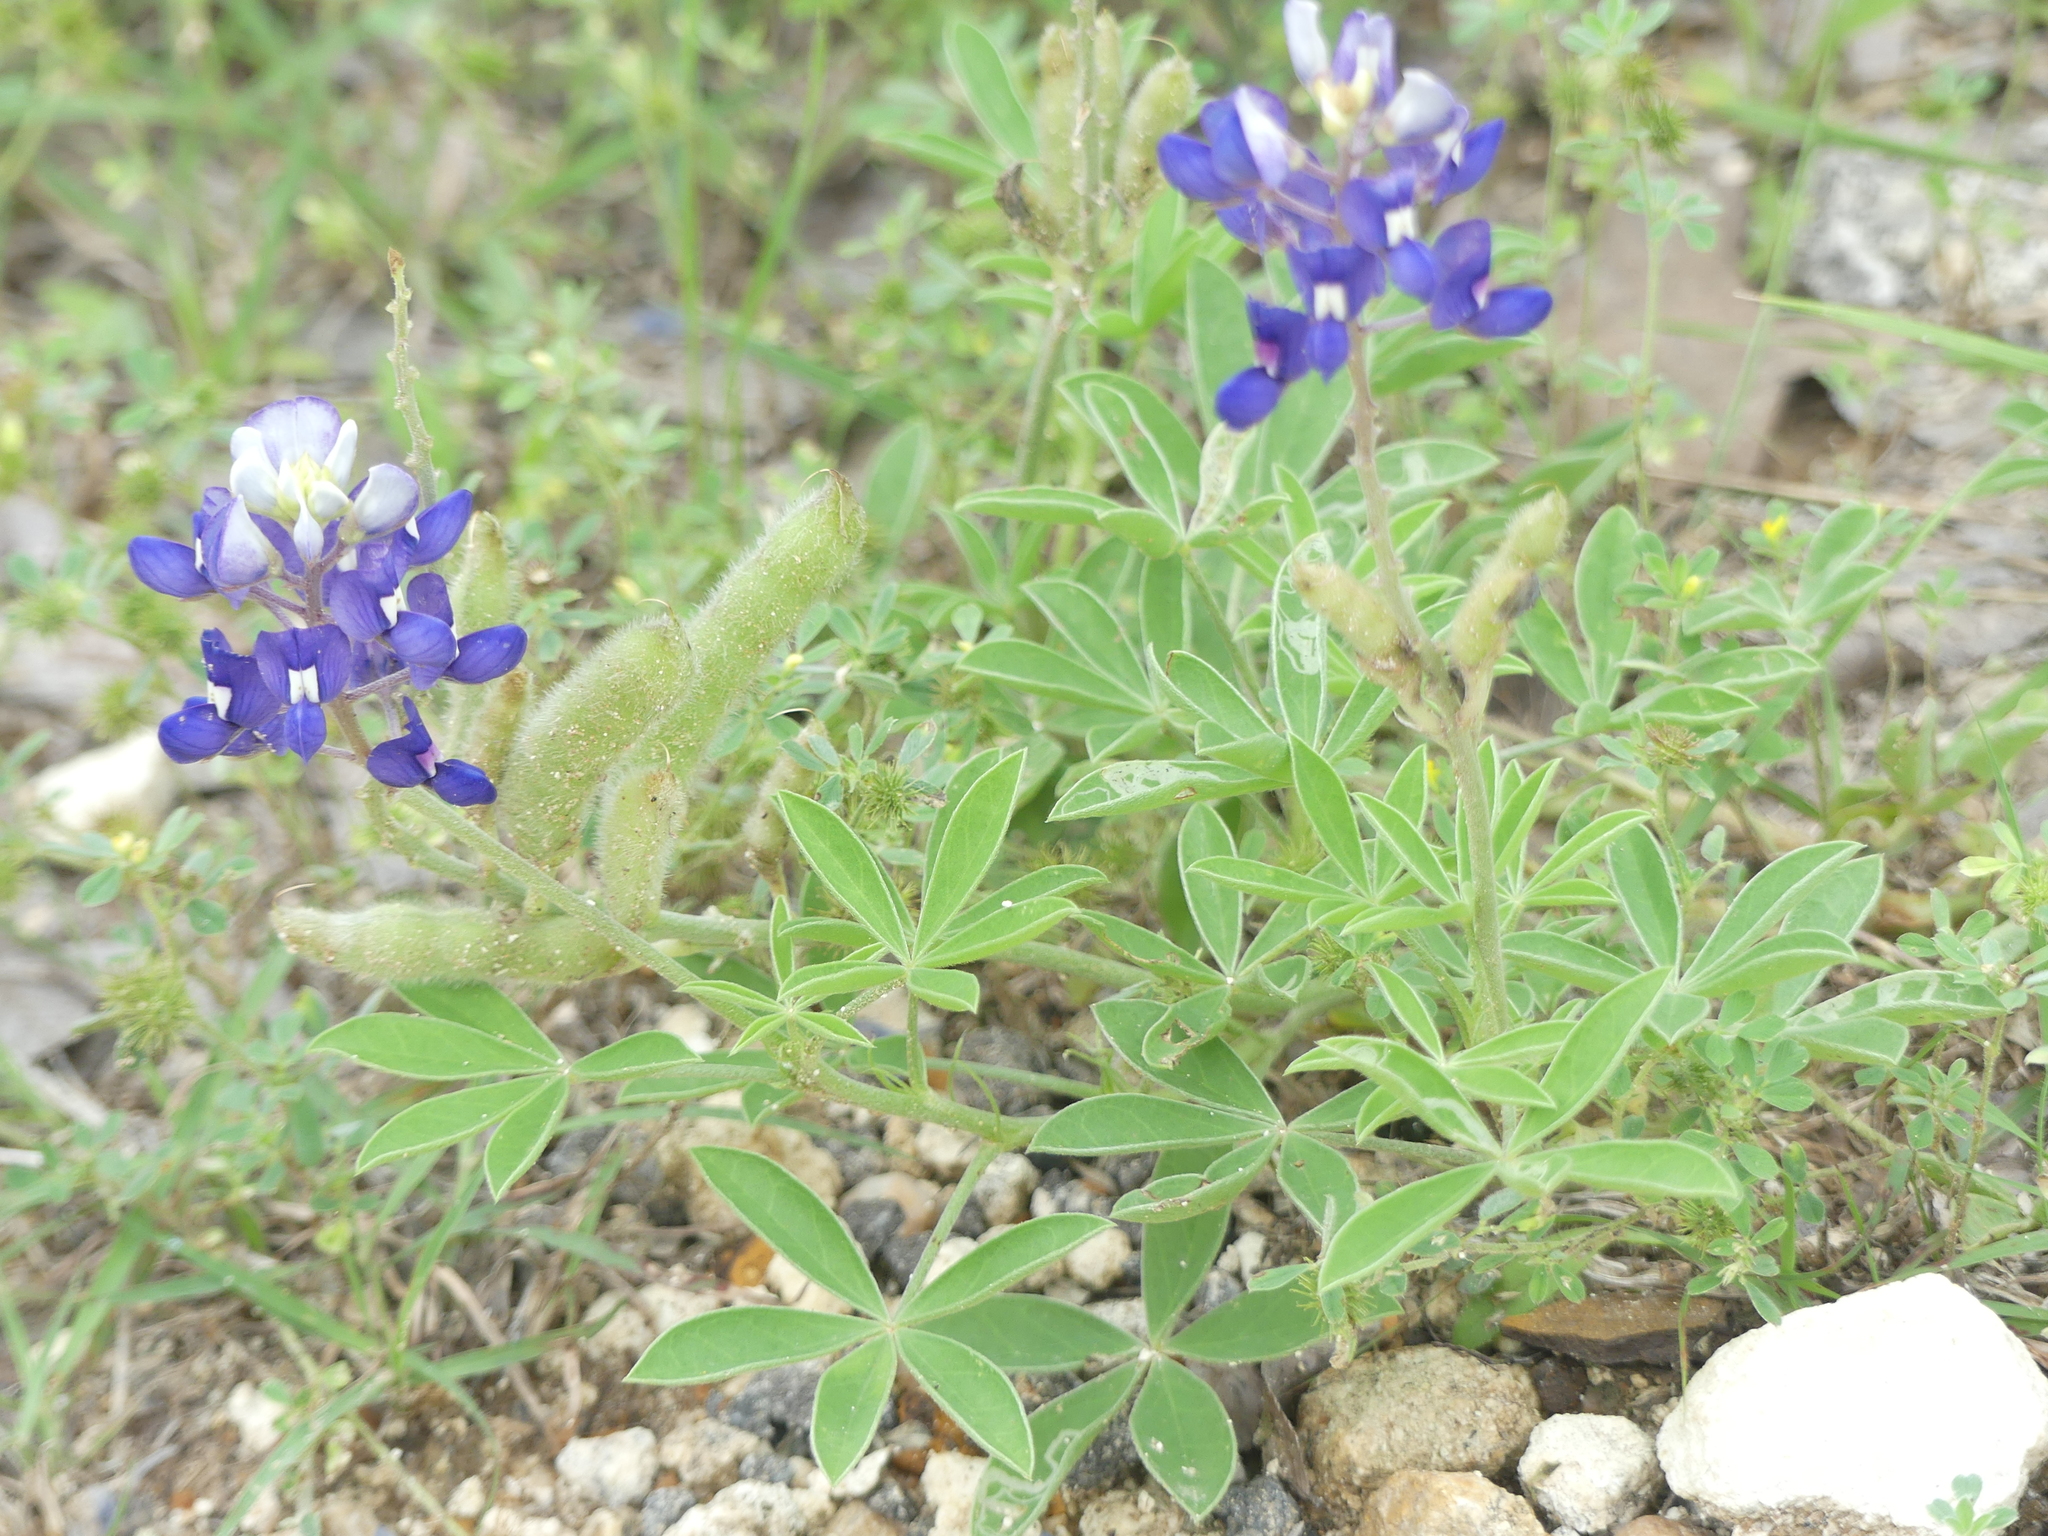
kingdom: Plantae
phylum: Tracheophyta
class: Magnoliopsida
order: Fabales
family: Fabaceae
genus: Lupinus
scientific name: Lupinus texensis
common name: Texas bluebonnet
